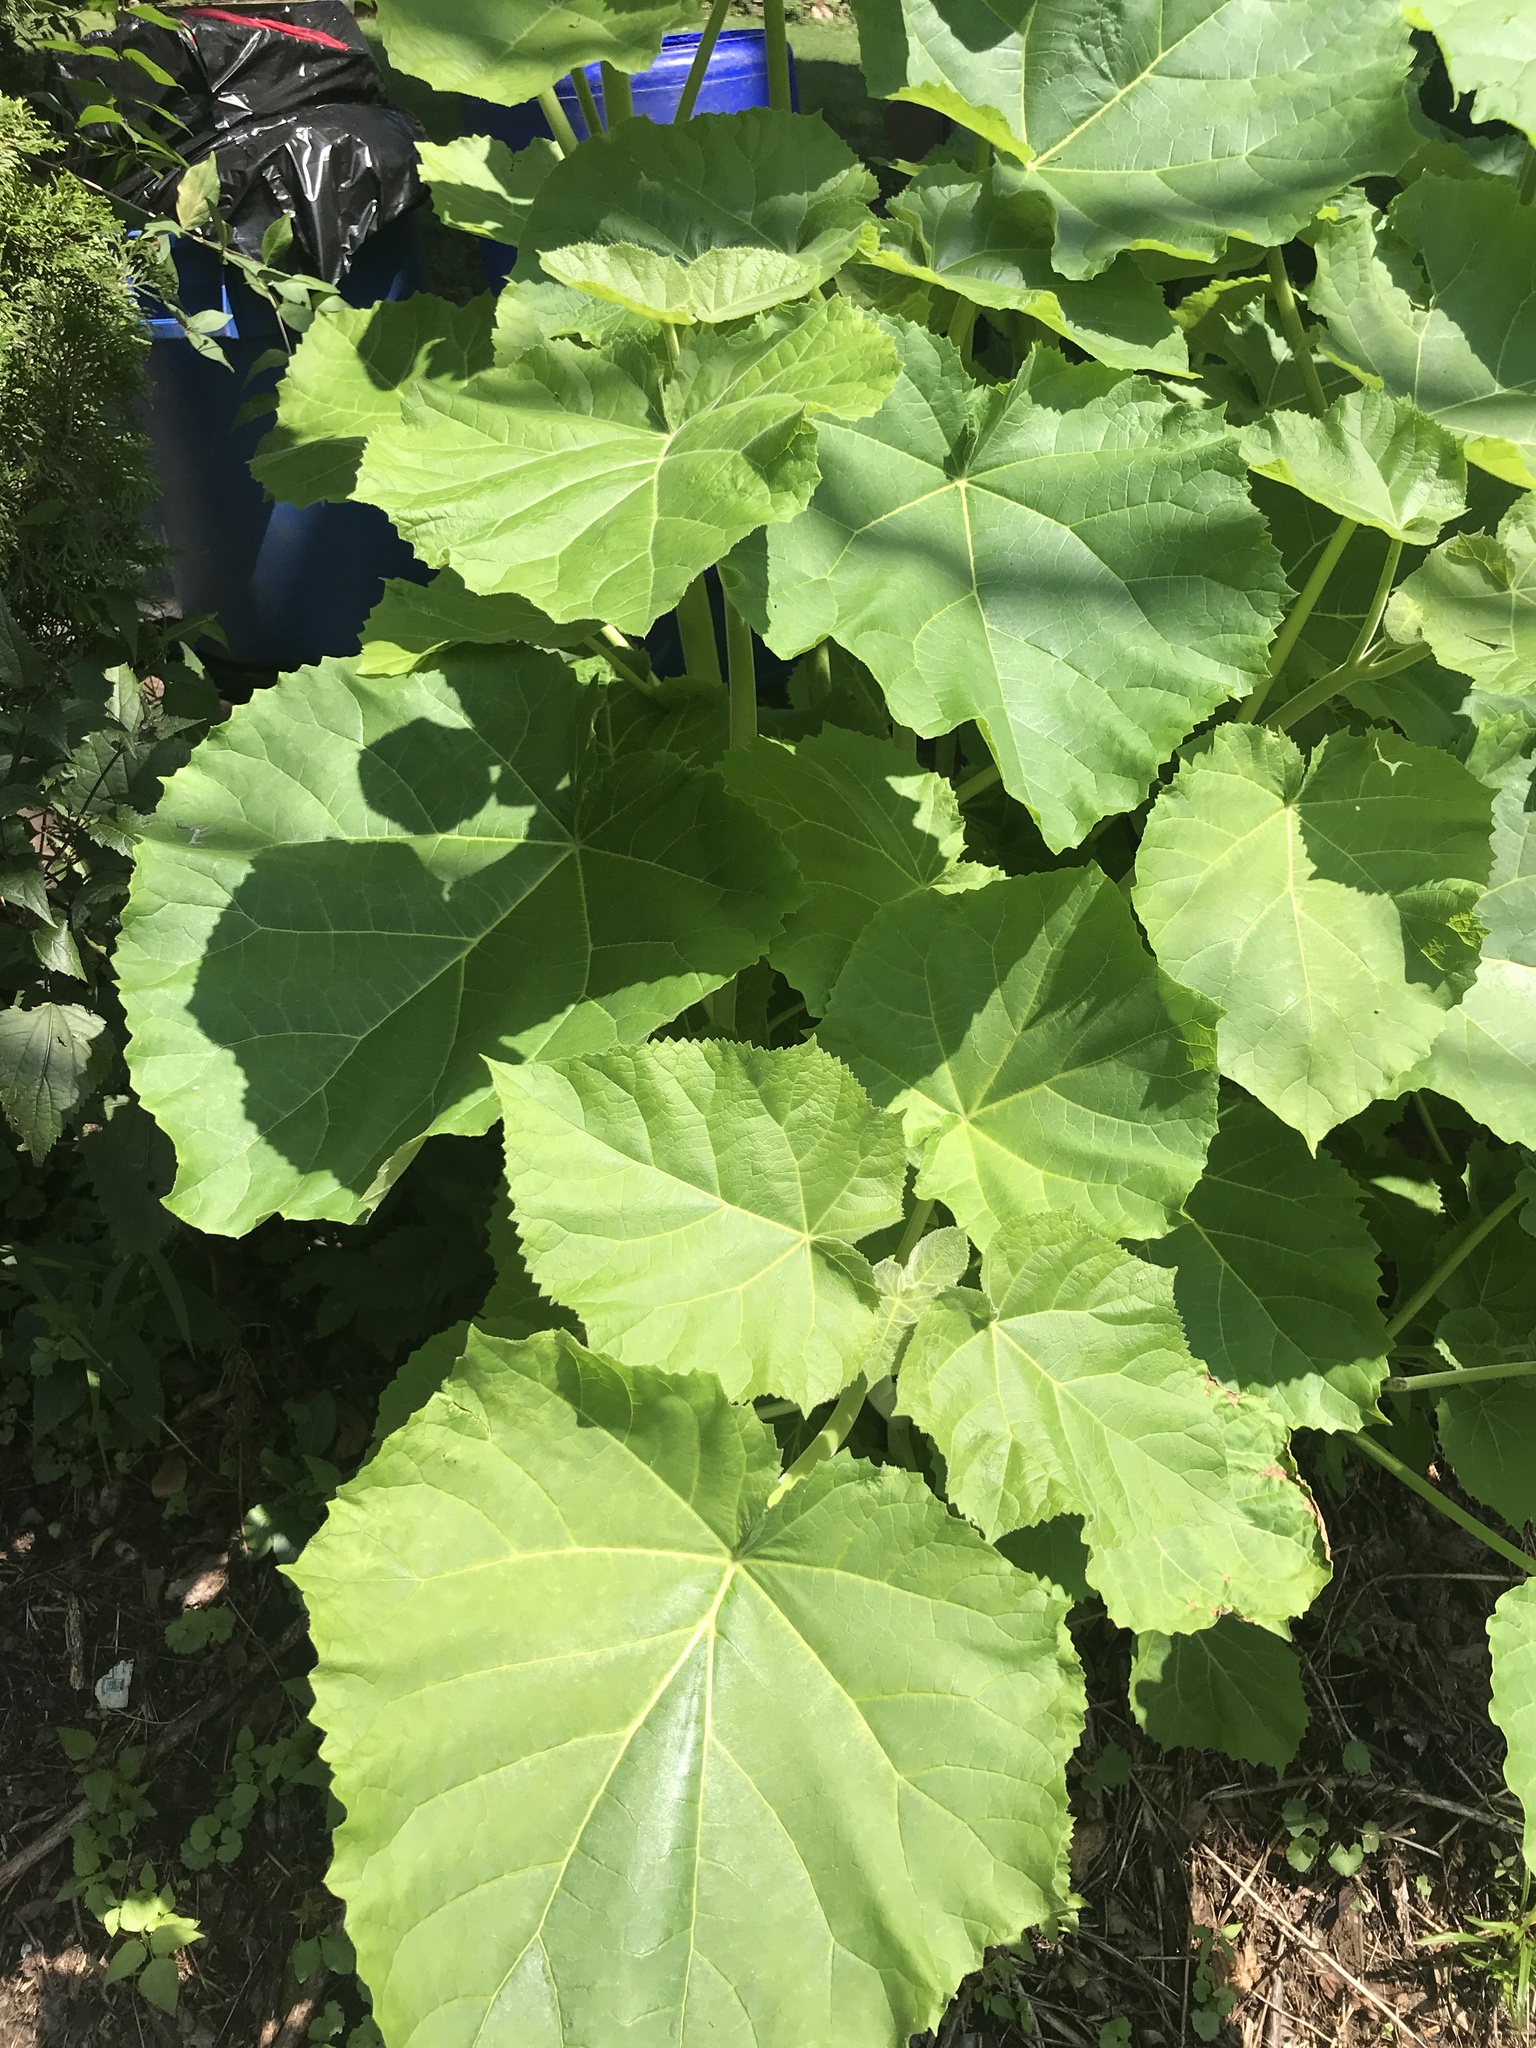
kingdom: Plantae
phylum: Tracheophyta
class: Magnoliopsida
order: Lamiales
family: Paulowniaceae
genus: Paulownia
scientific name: Paulownia tomentosa
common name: Foxglove-tree
